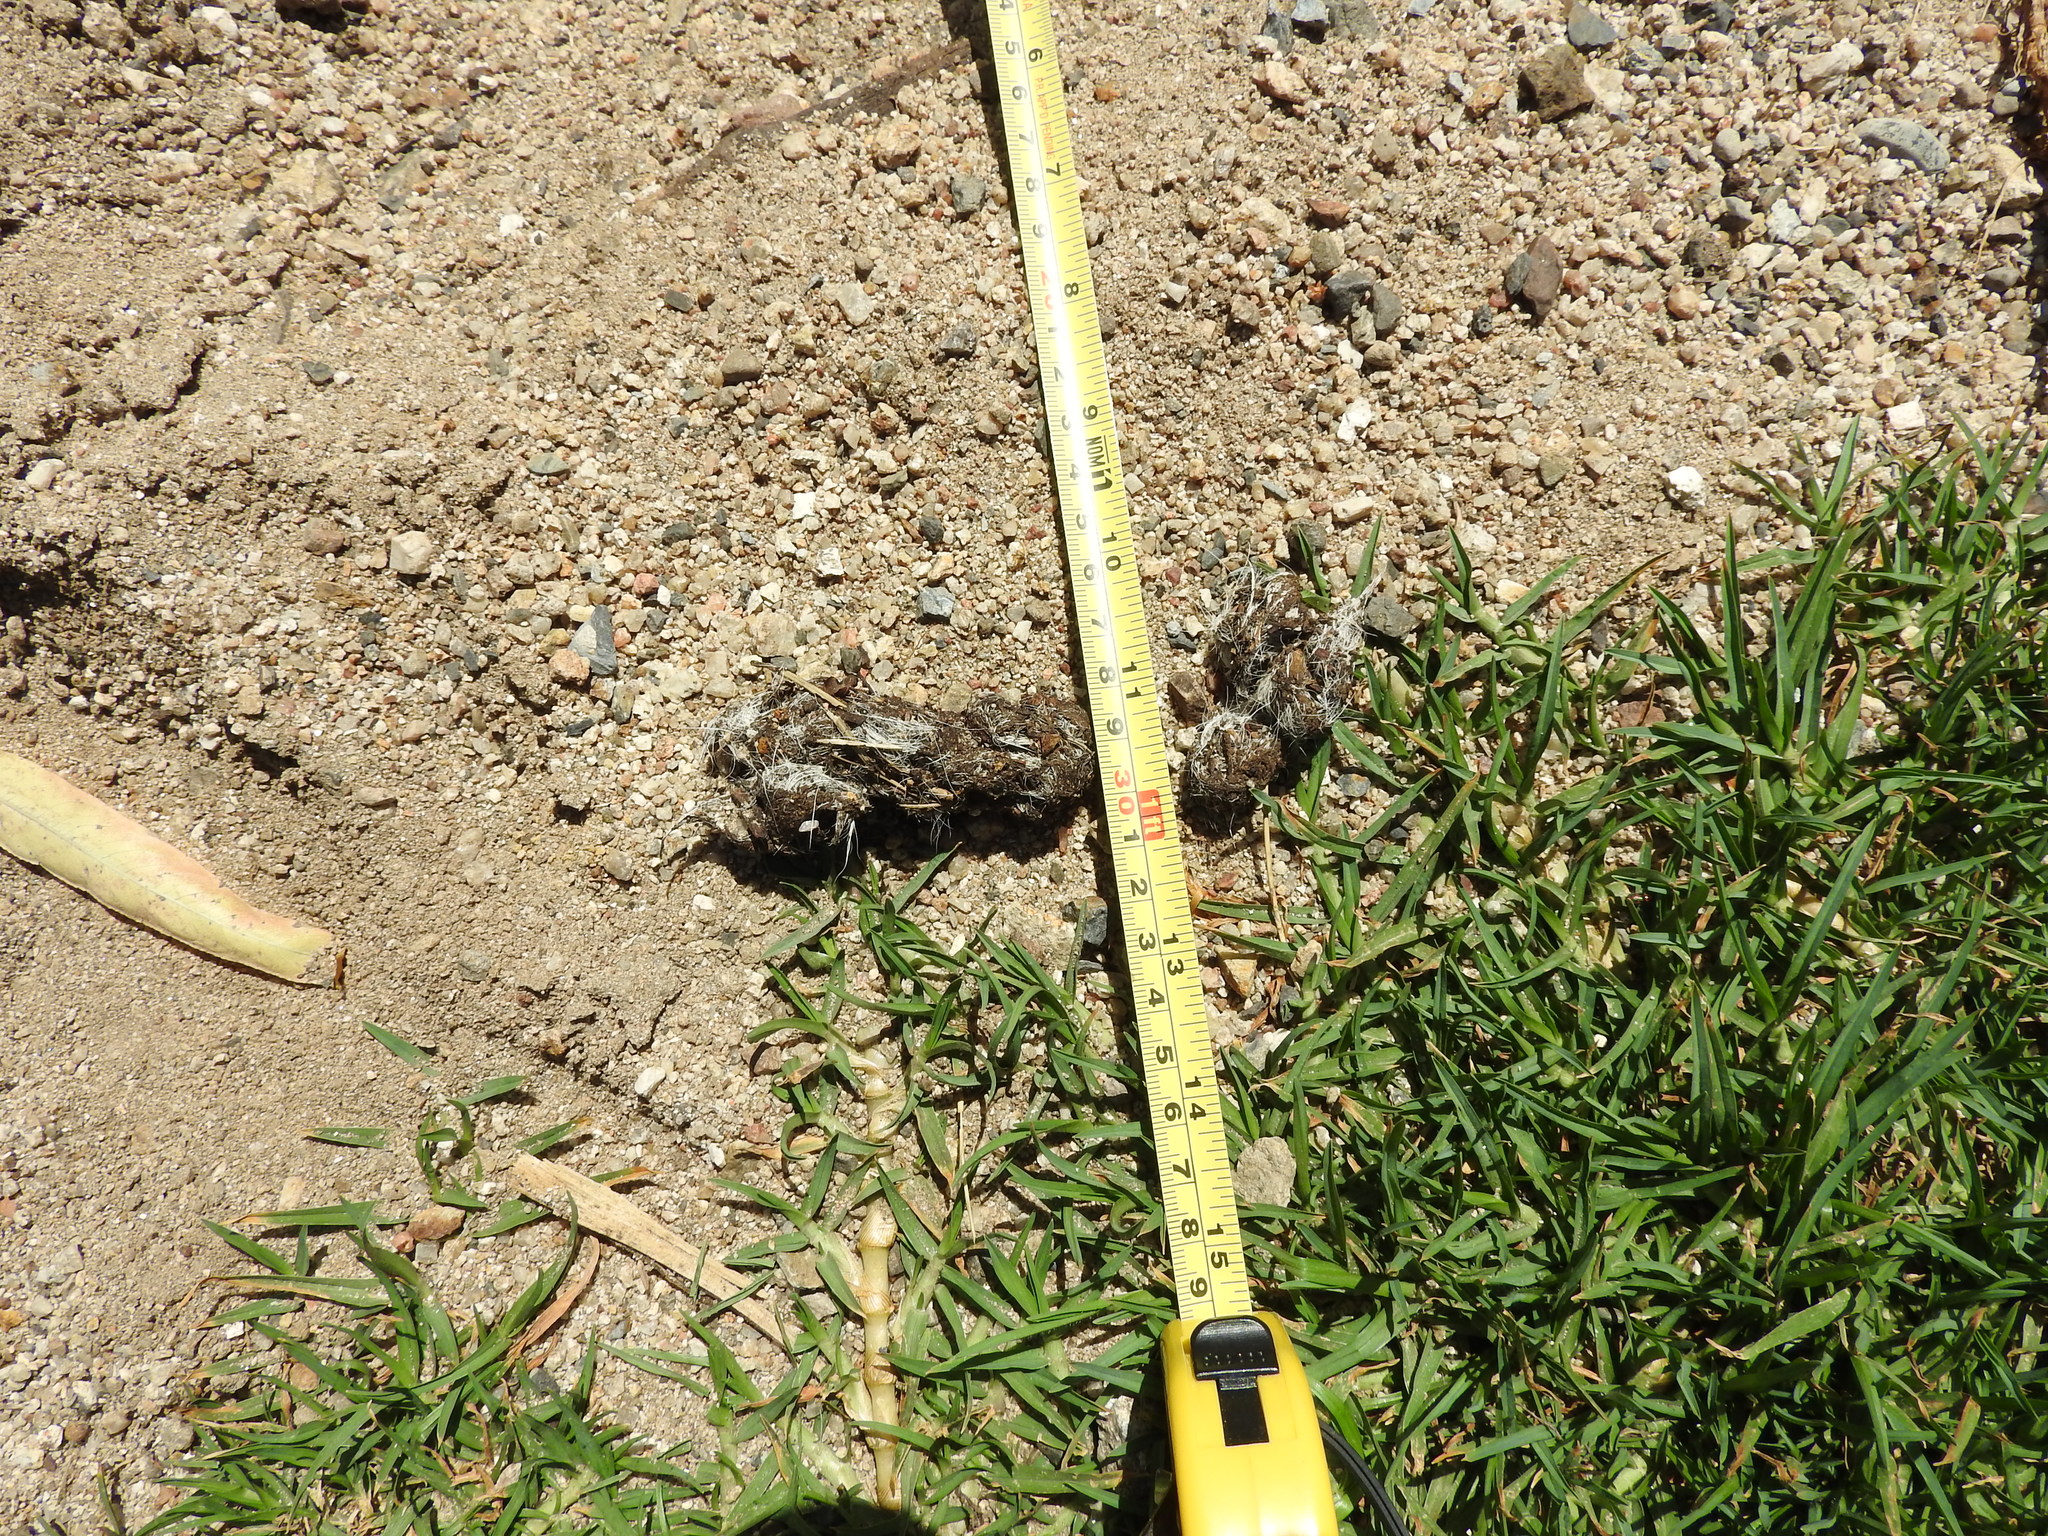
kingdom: Animalia
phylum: Chordata
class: Mammalia
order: Carnivora
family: Canidae
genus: Canis
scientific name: Canis latrans
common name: Coyote
